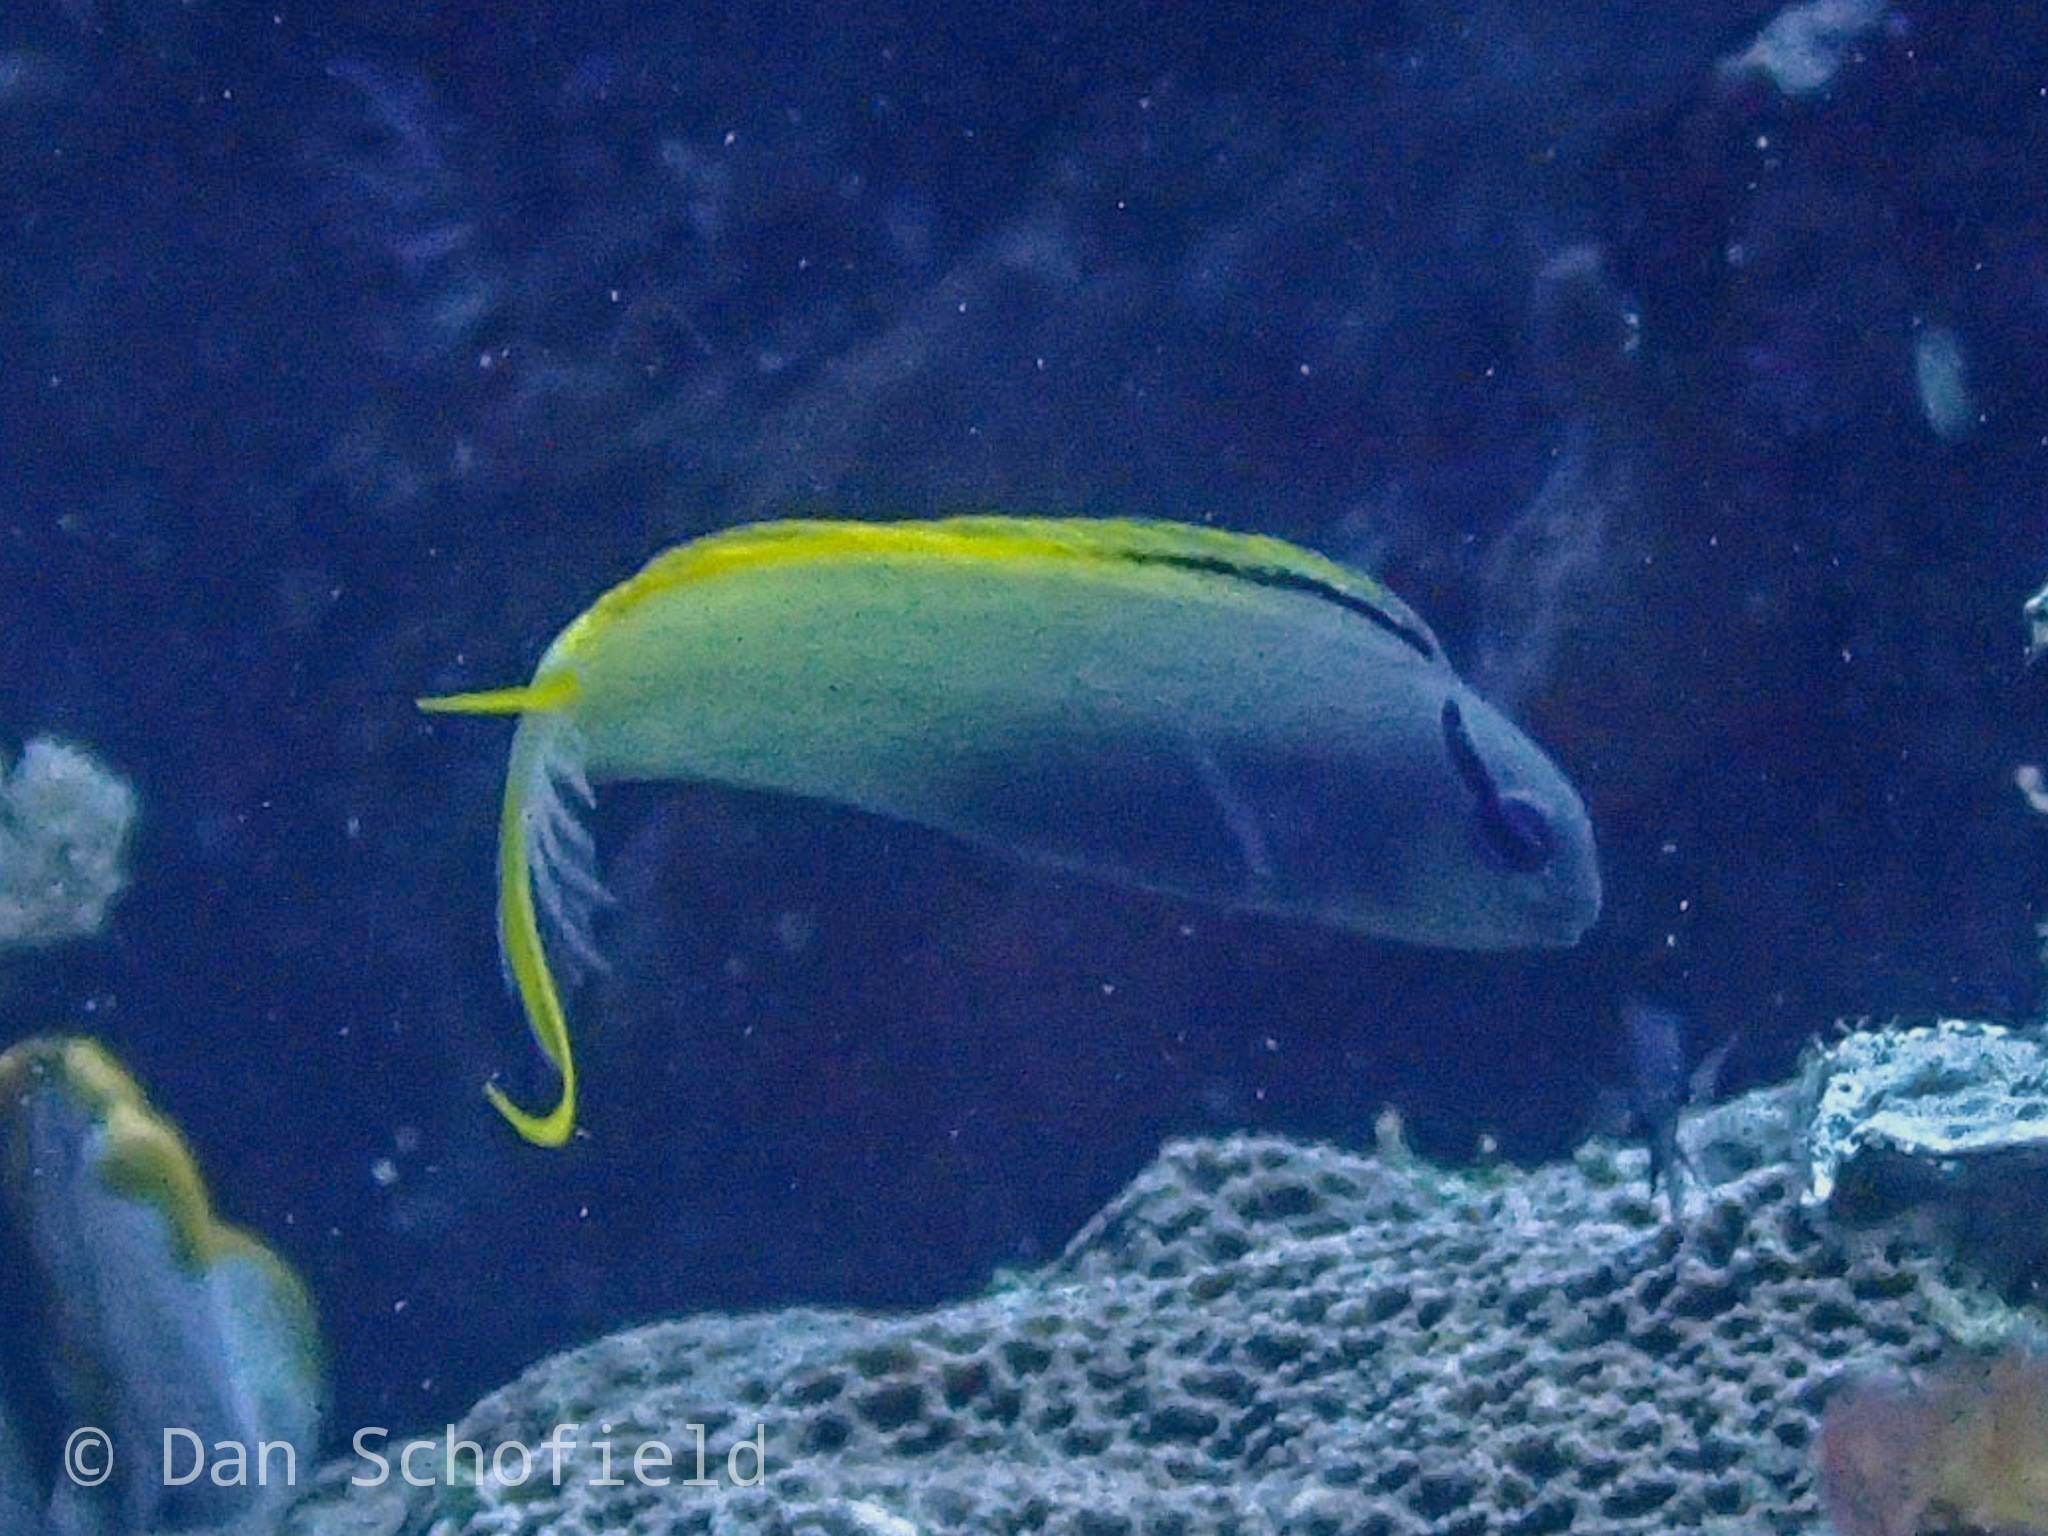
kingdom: Animalia
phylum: Chordata
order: Perciformes
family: Blenniidae
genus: Meiacanthus
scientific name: Meiacanthus atrodorsalis
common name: Eye-lash harptail-blenny
